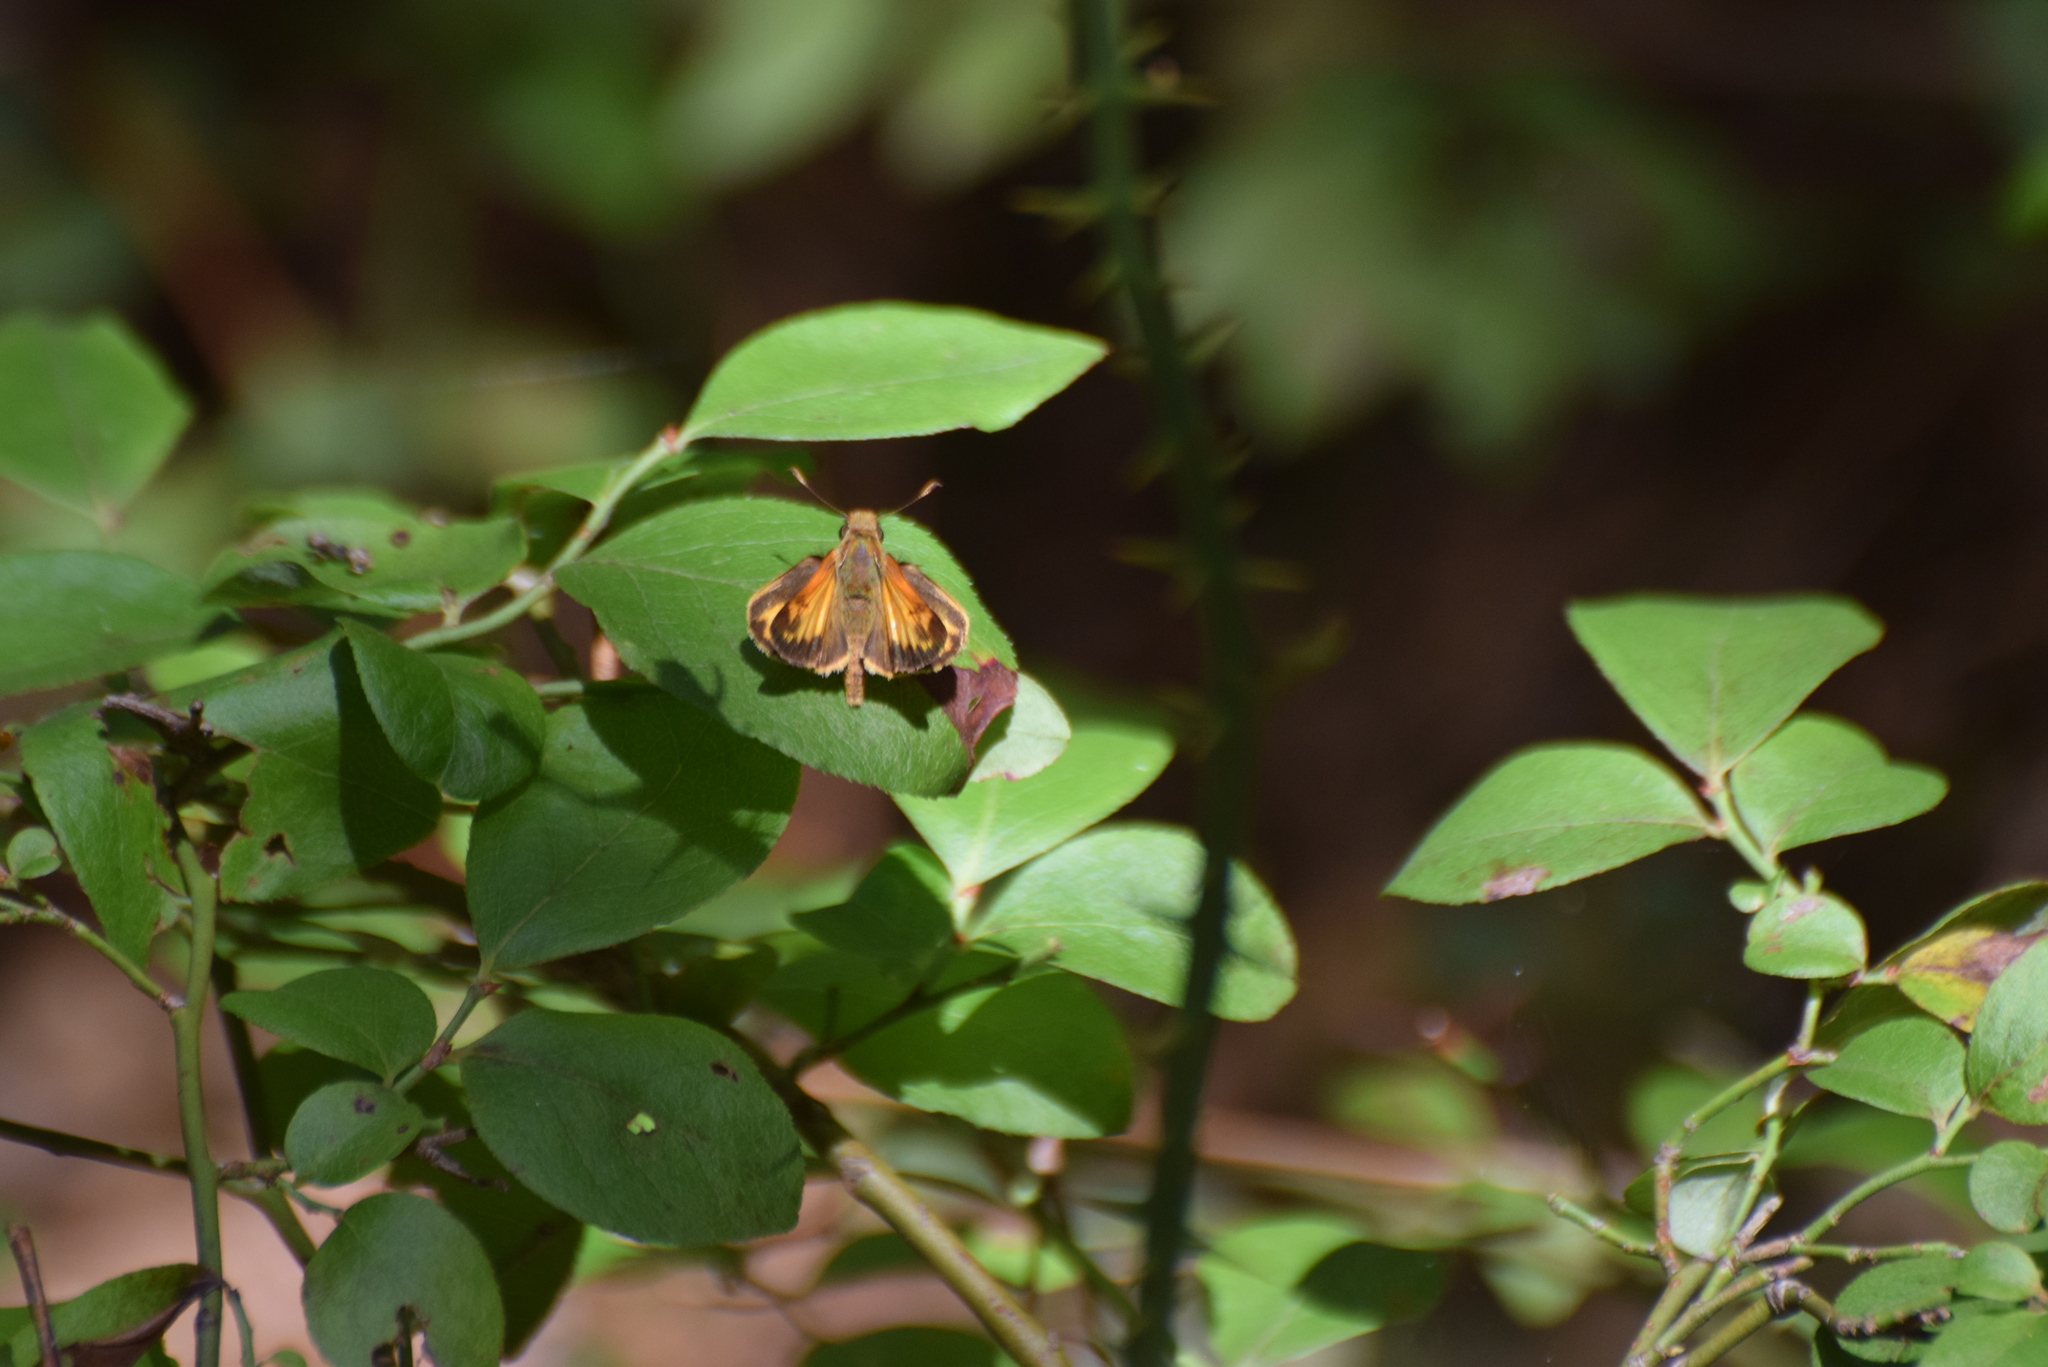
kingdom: Animalia
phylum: Arthropoda
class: Insecta
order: Lepidoptera
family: Hesperiidae
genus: Lon
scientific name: Lon zabulon
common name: Zabulon skipper
